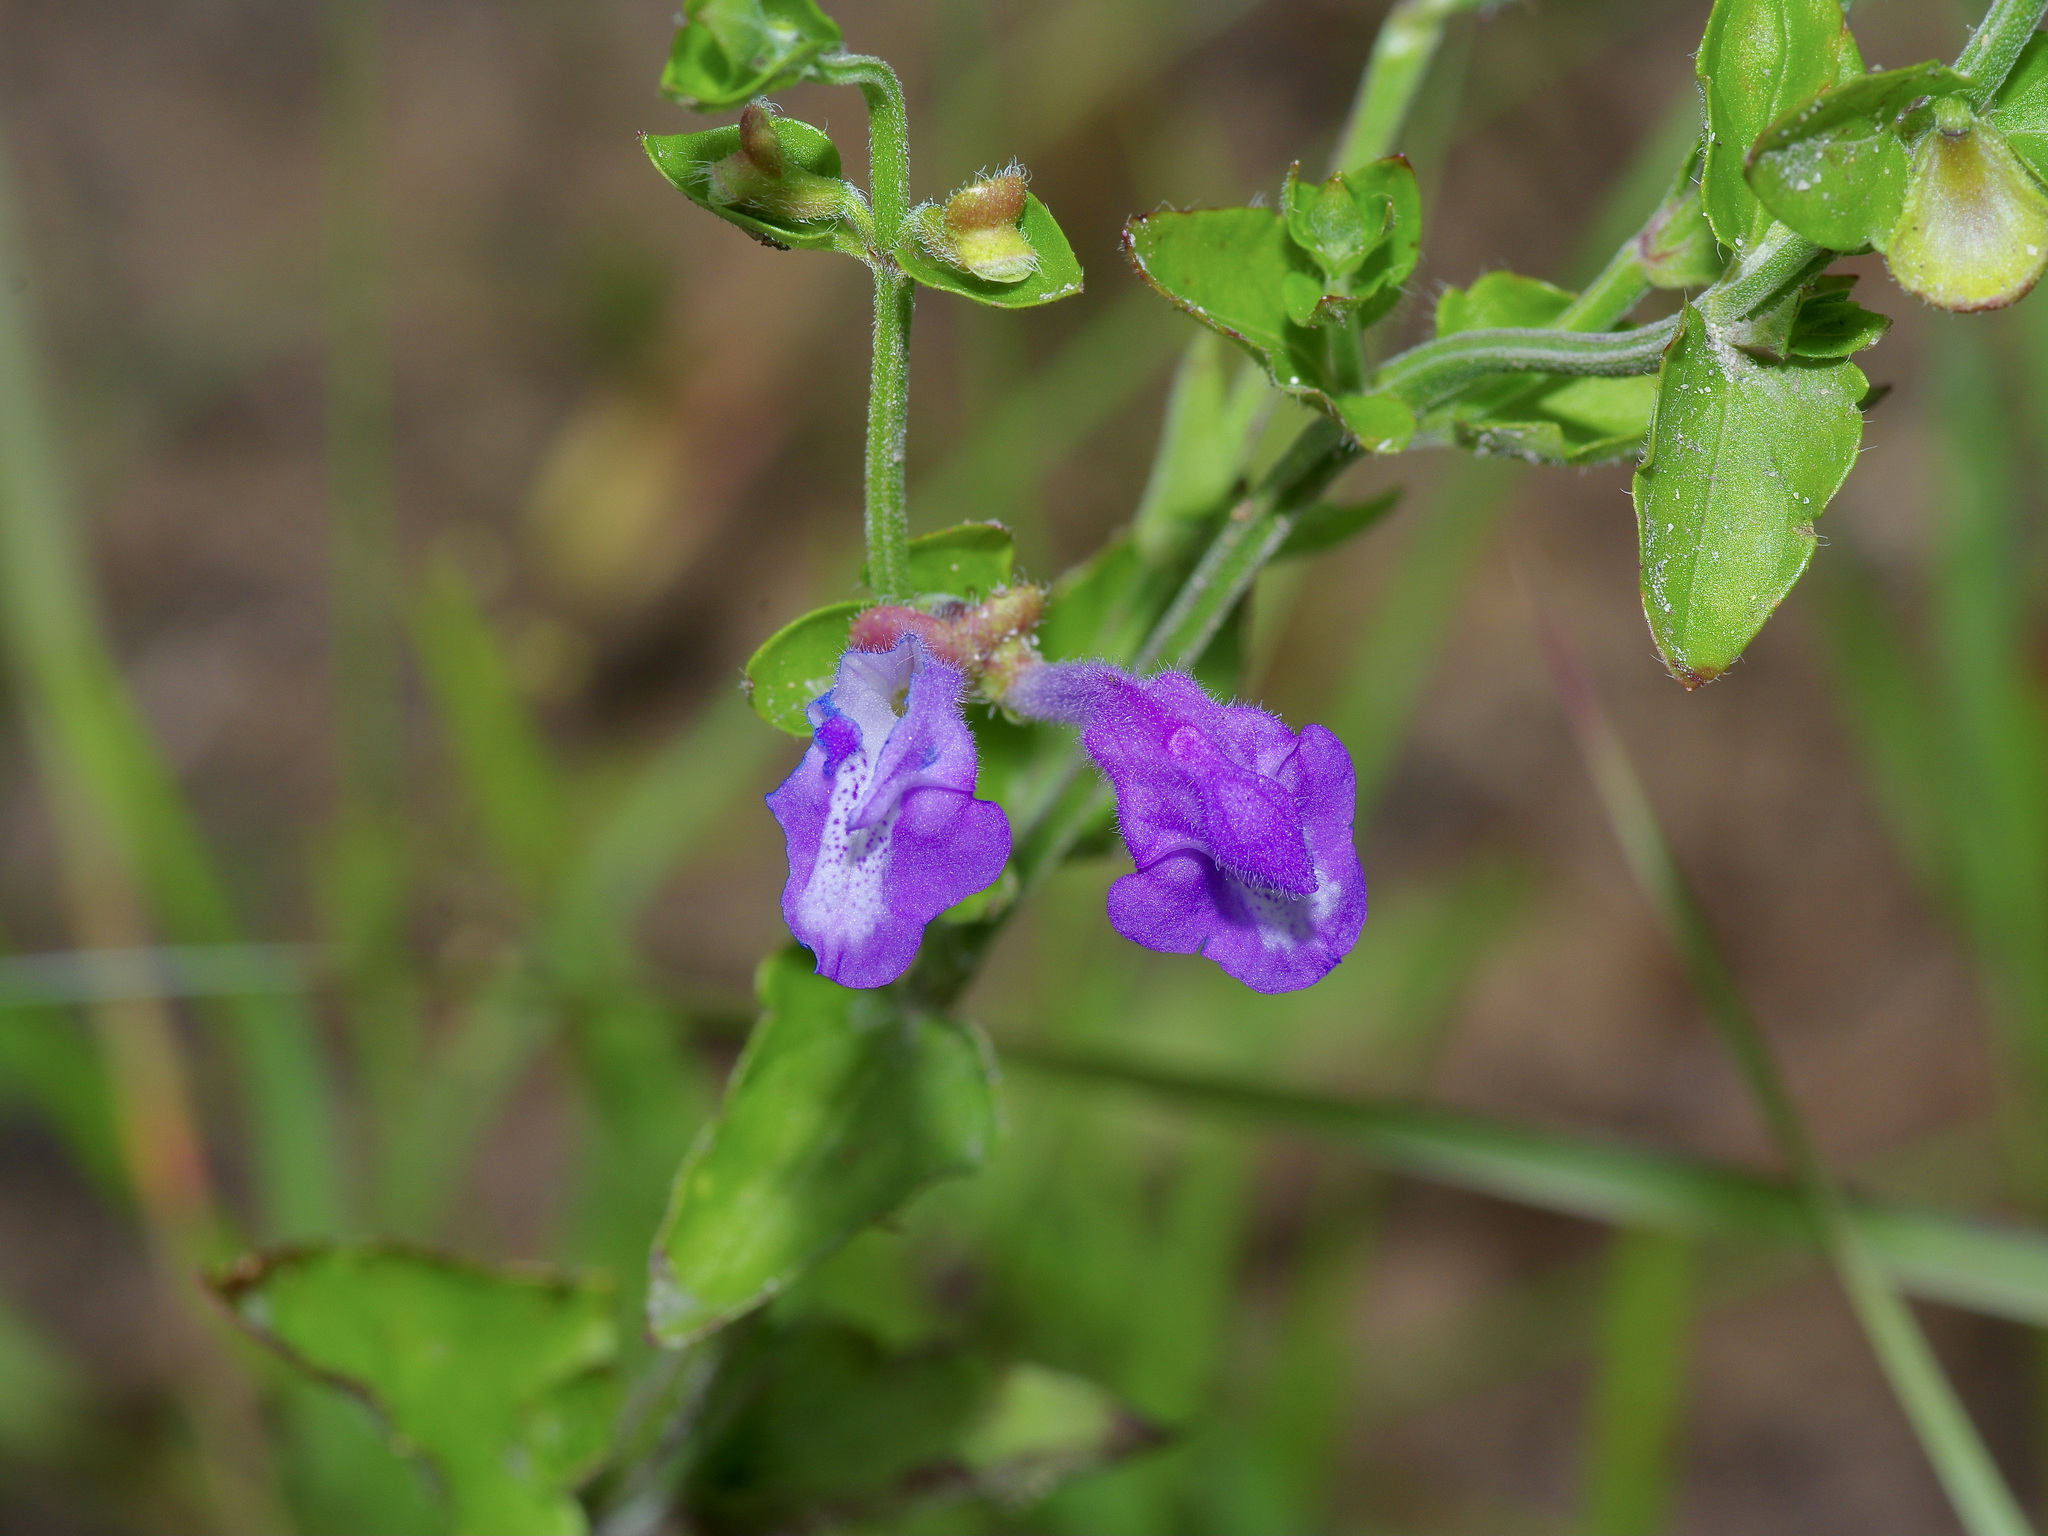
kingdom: Plantae
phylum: Tracheophyta
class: Magnoliopsida
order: Lamiales
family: Lamiaceae
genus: Scutellaria
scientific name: Scutellaria cardiophylla
